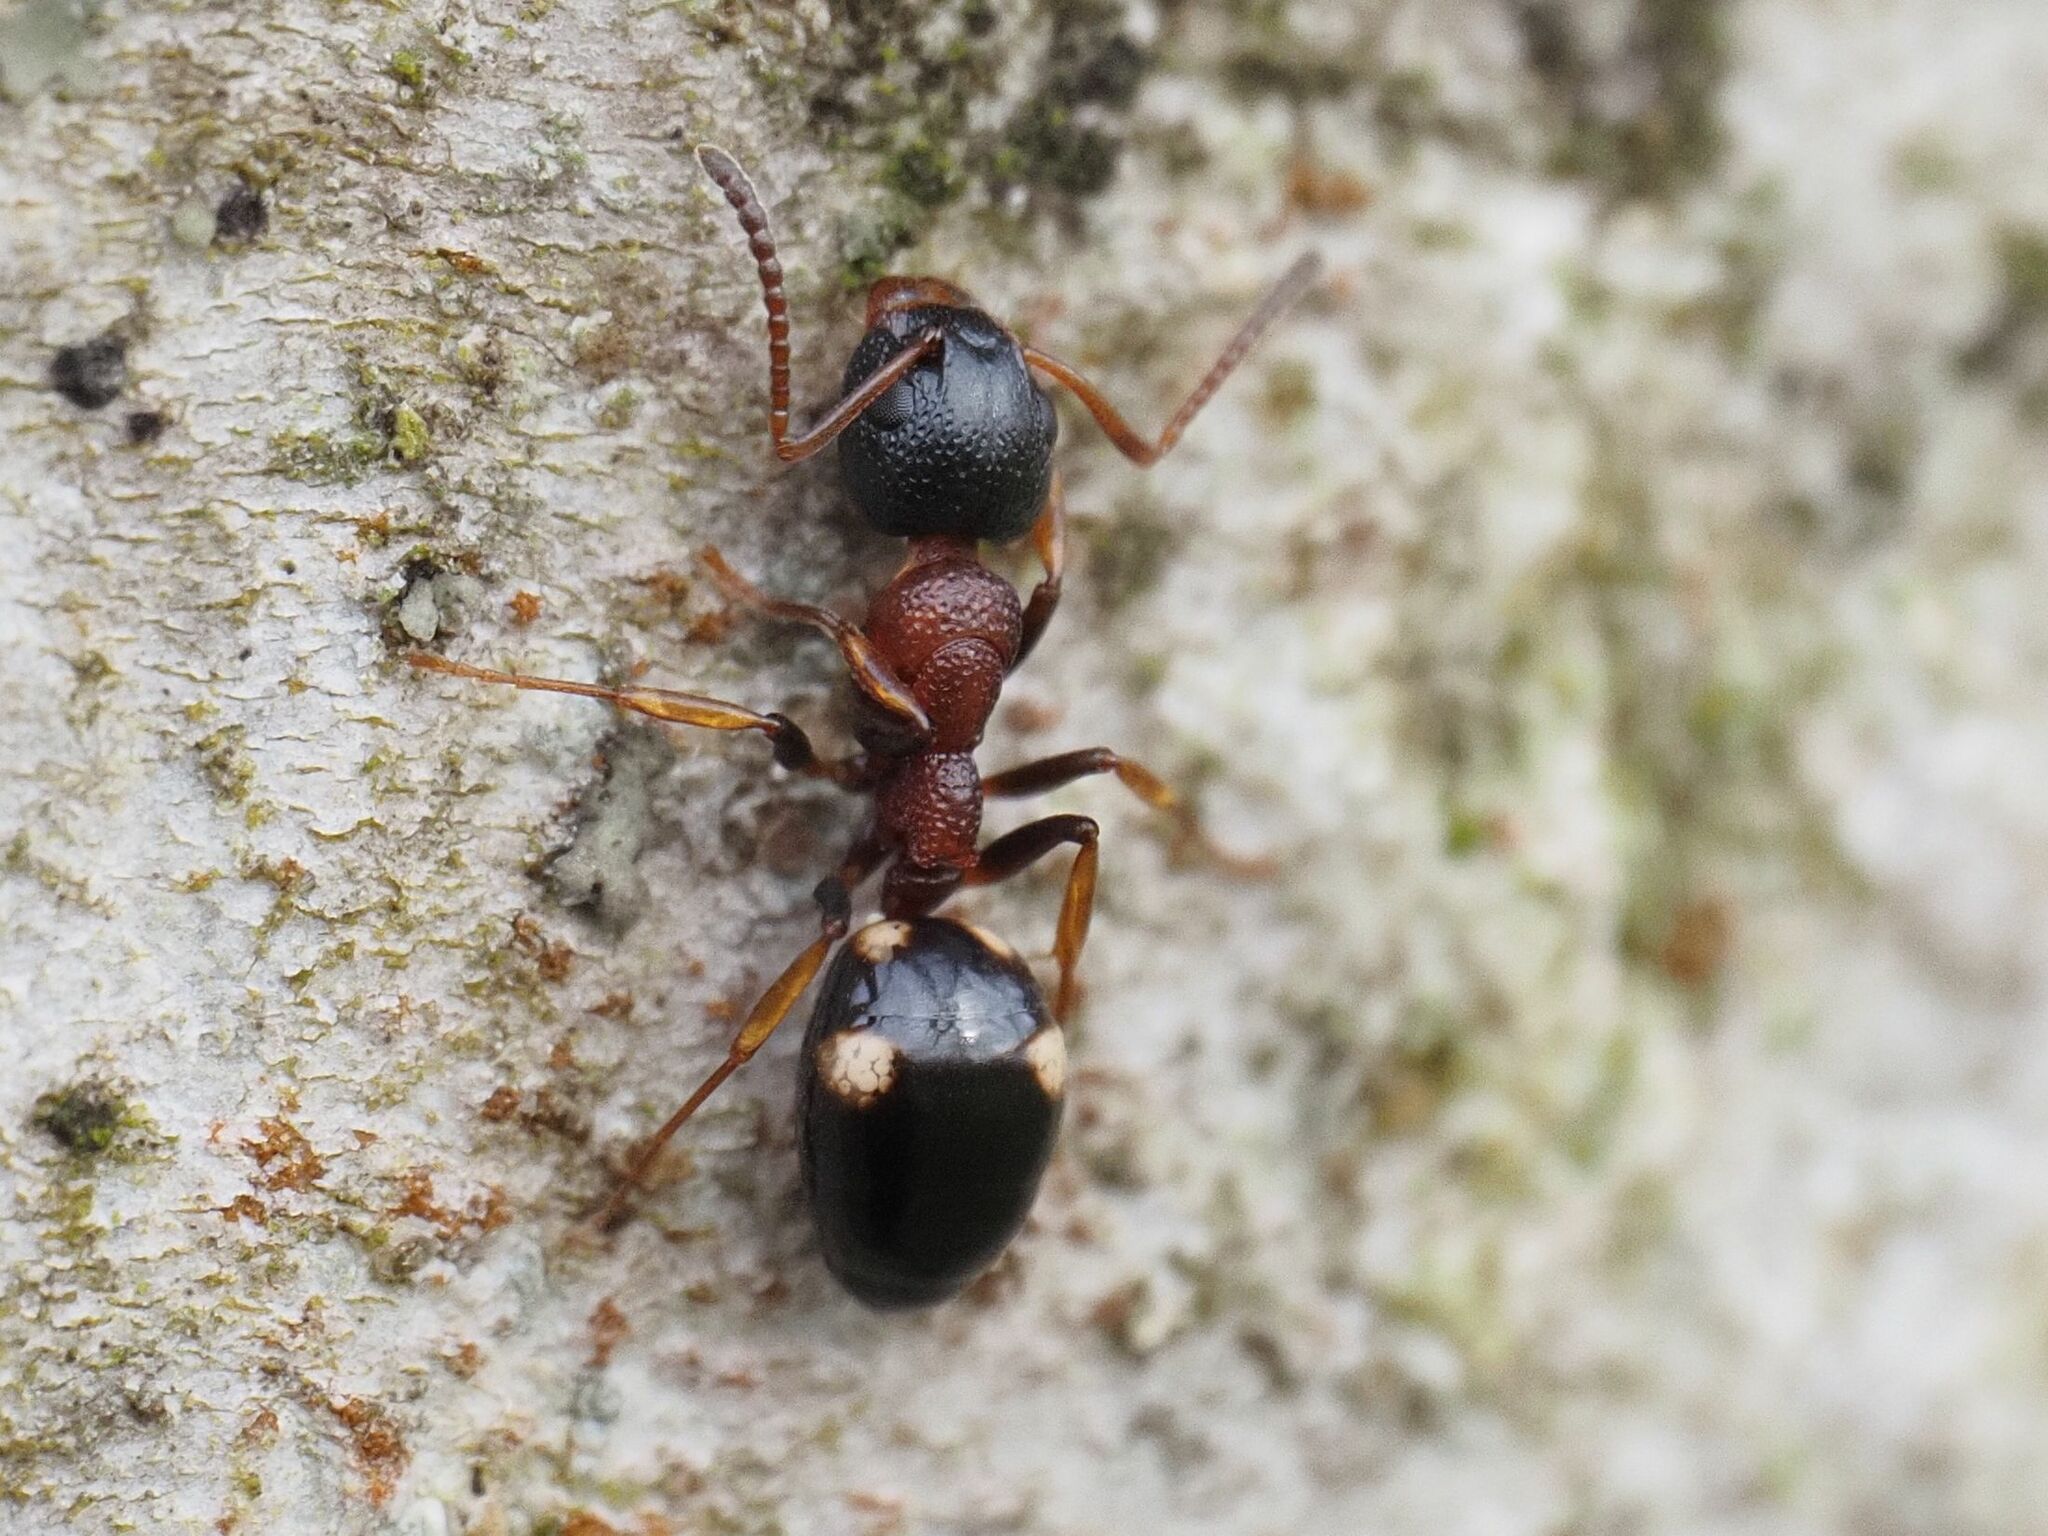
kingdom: Animalia
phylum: Arthropoda
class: Insecta
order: Hymenoptera
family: Formicidae
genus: Dolichoderus
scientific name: Dolichoderus quadripunctatus
